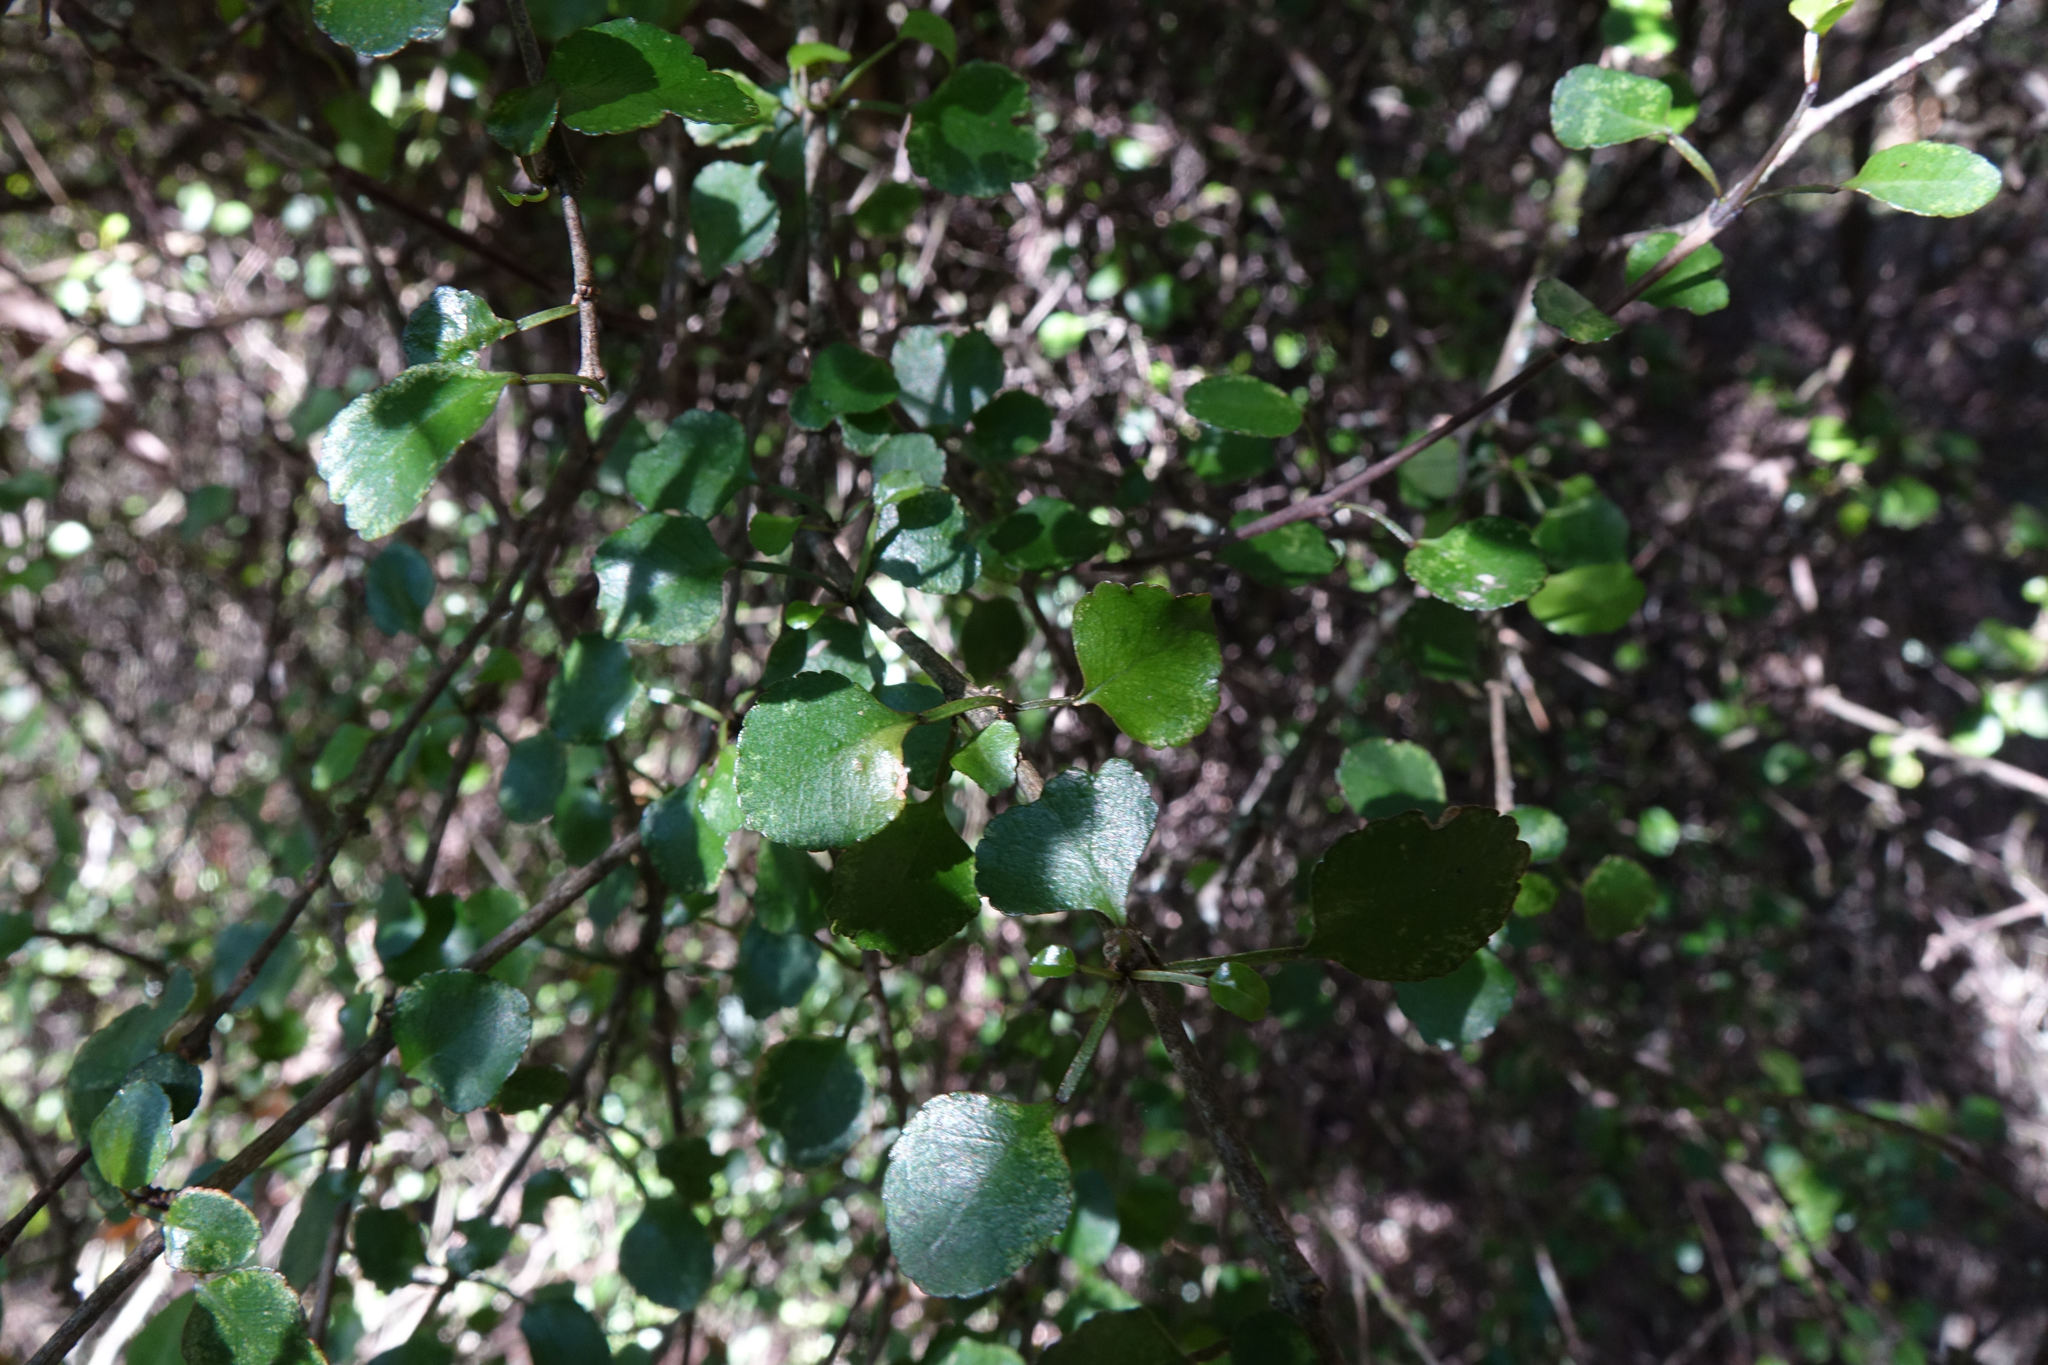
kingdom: Plantae
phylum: Tracheophyta
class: Magnoliopsida
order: Sapindales
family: Rutaceae
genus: Melicope
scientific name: Melicope simplex
